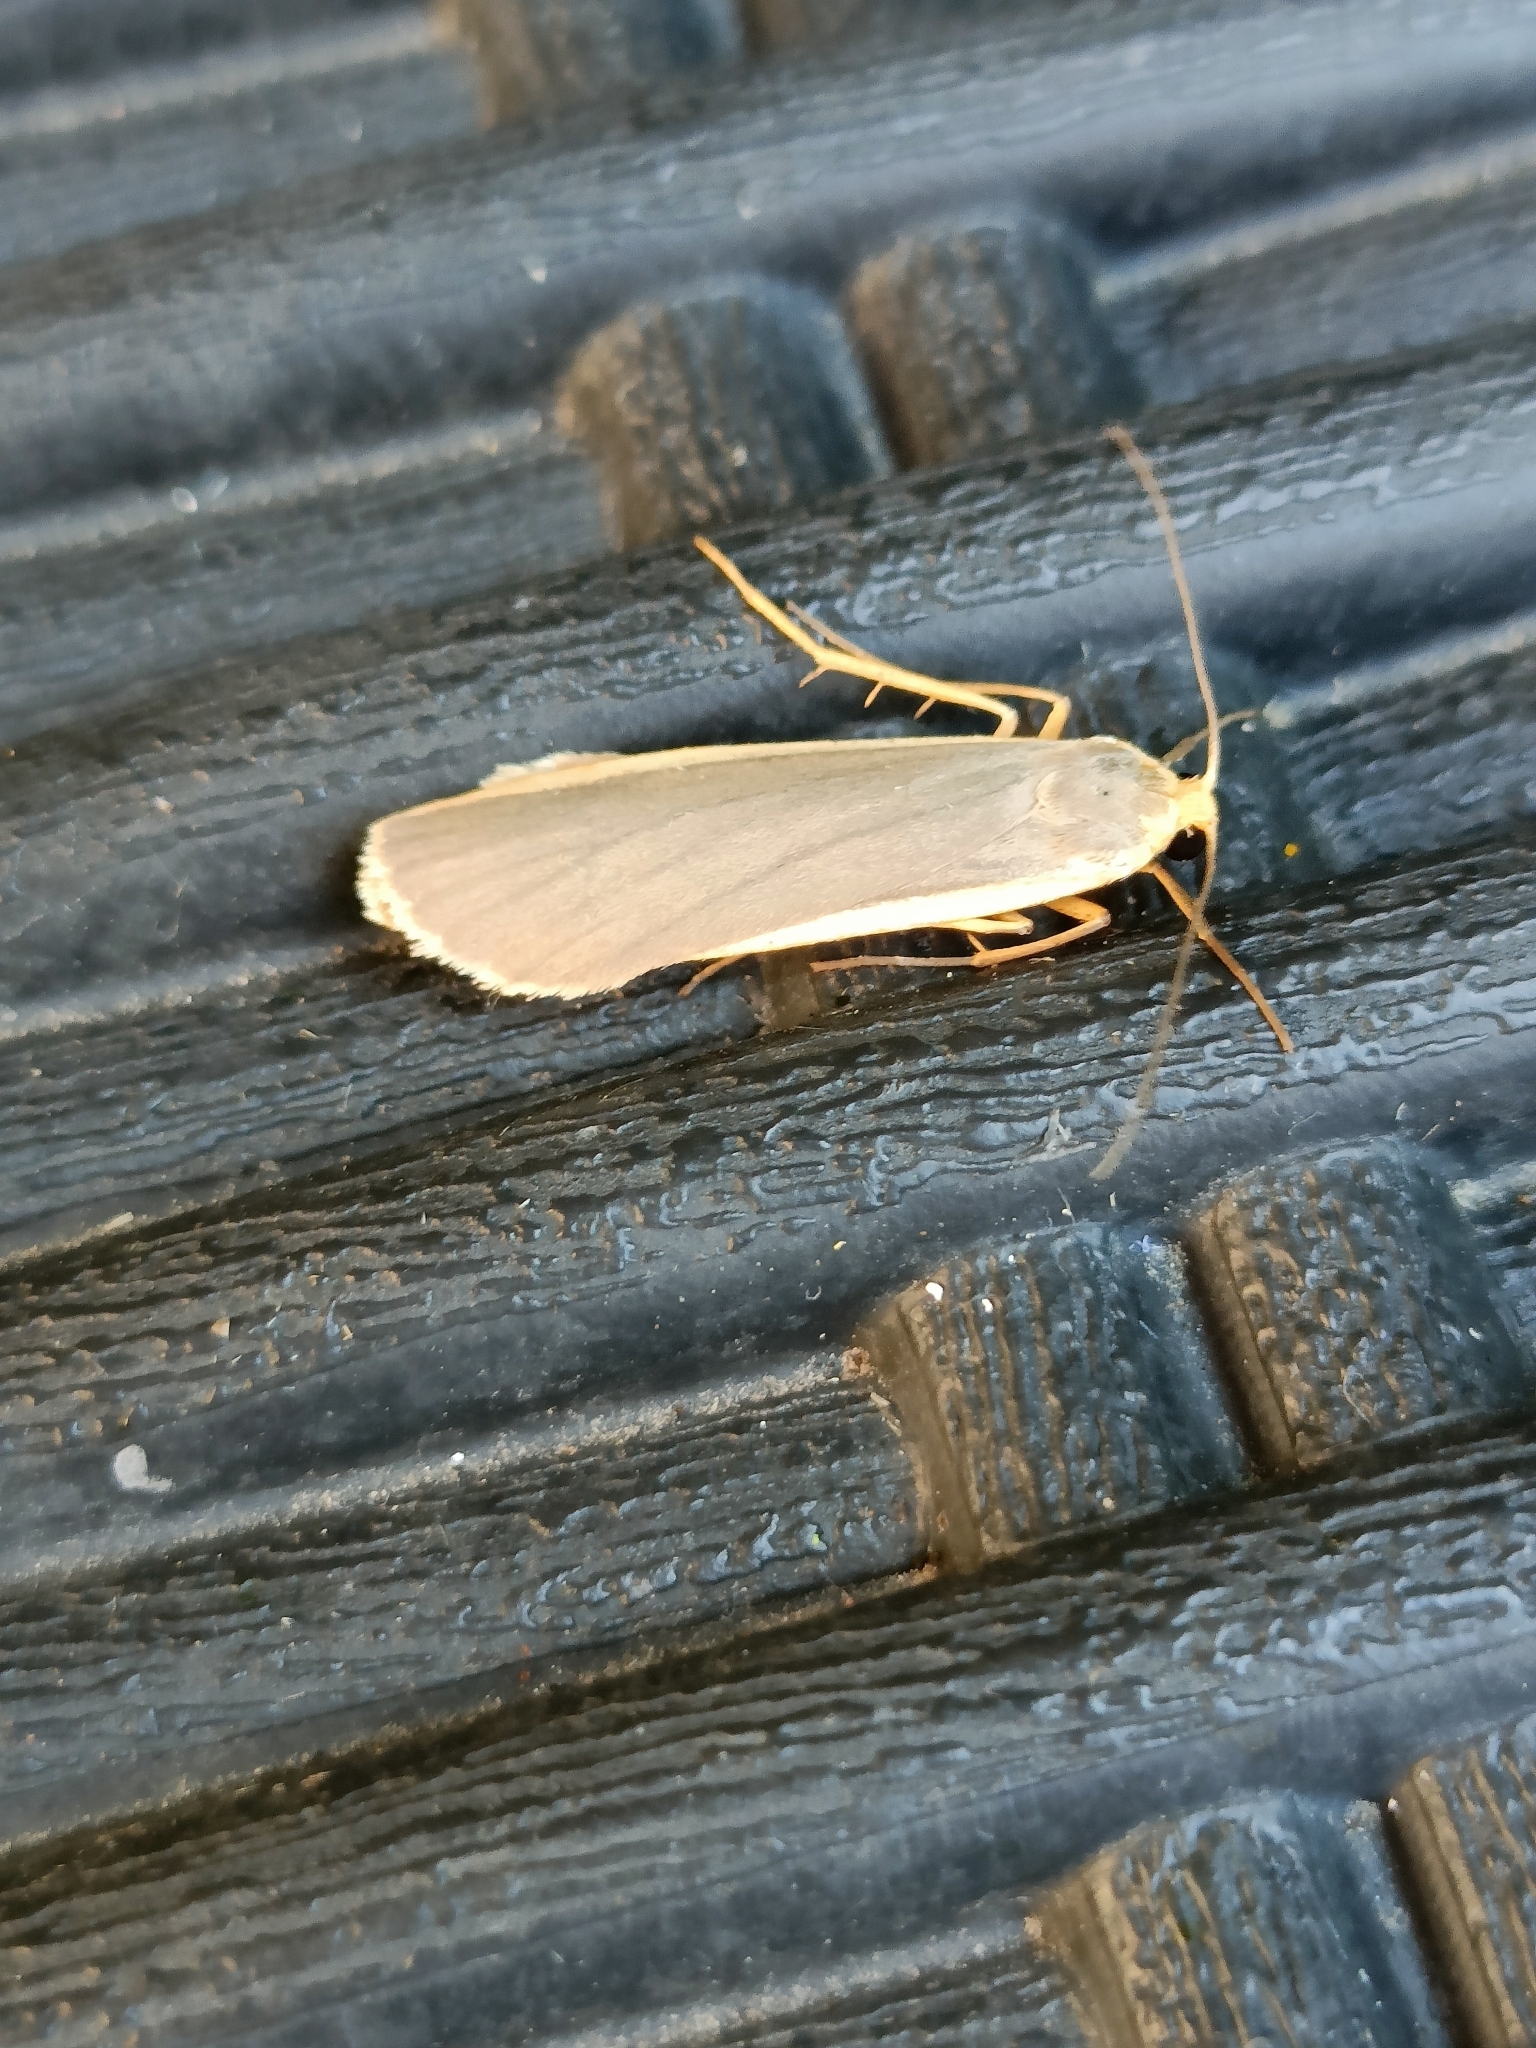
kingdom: Animalia
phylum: Arthropoda
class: Insecta
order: Lepidoptera
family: Erebidae
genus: Nyea
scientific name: Nyea lurideola
